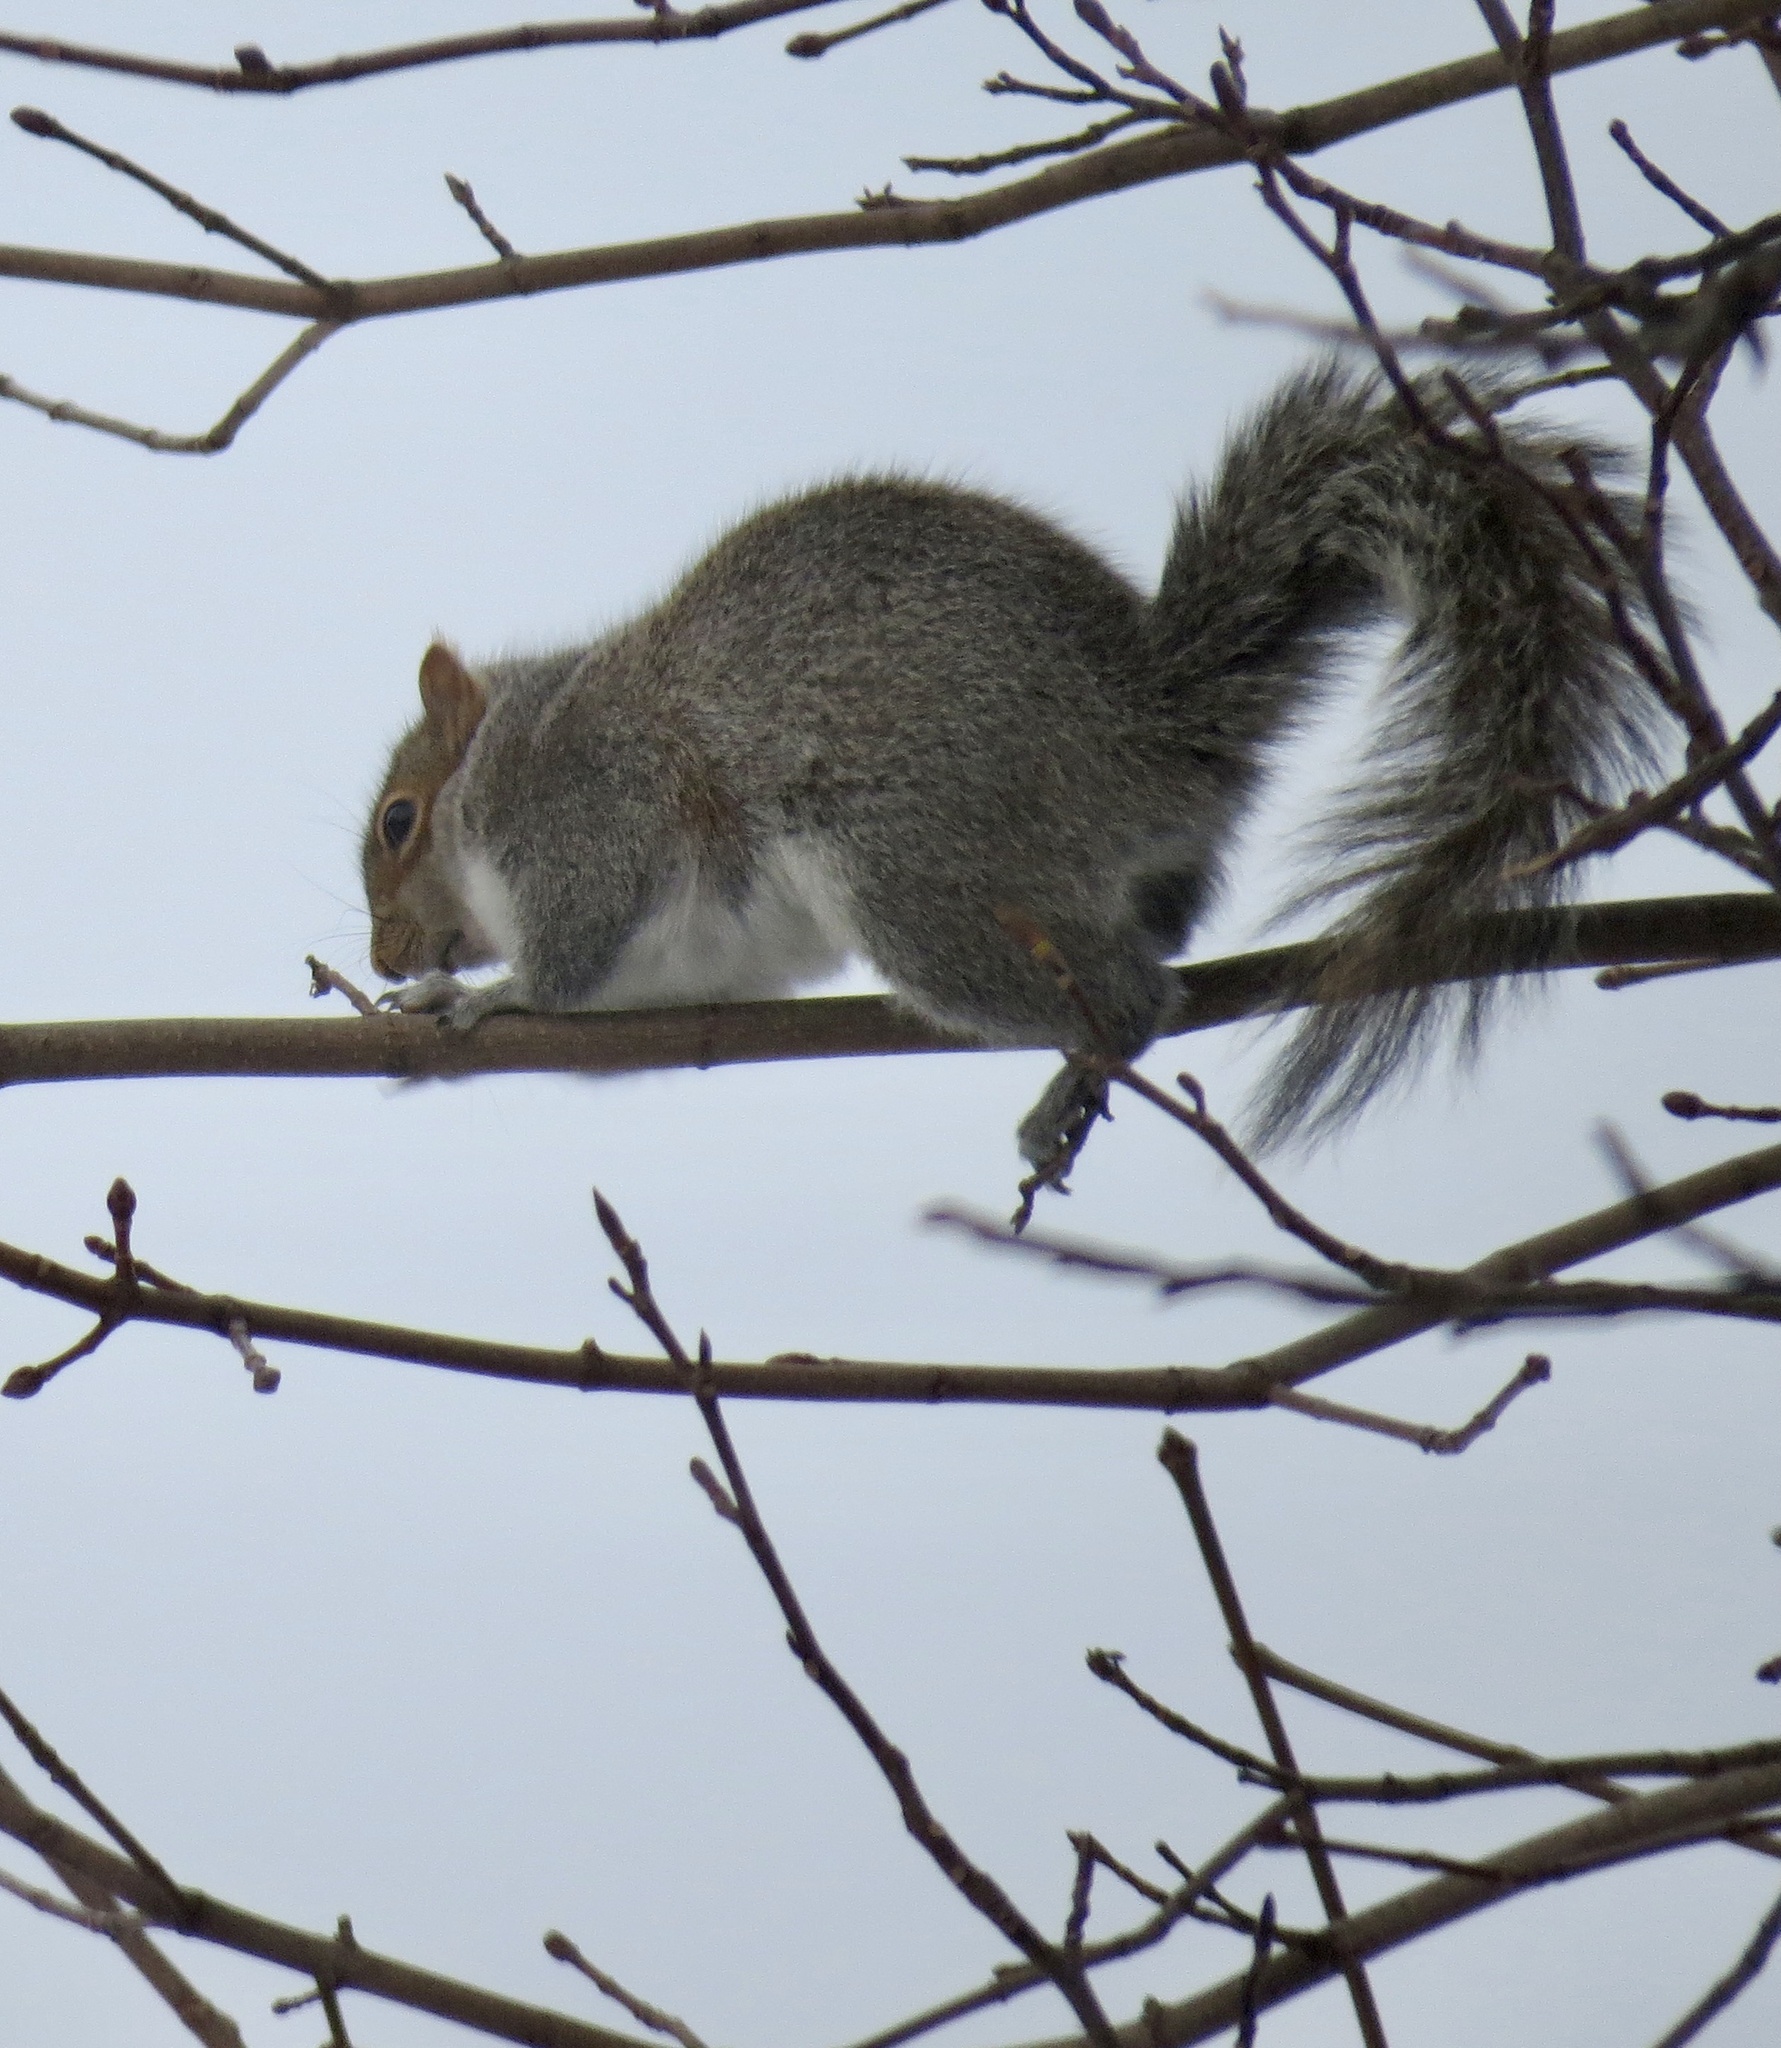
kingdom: Animalia
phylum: Chordata
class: Mammalia
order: Rodentia
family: Sciuridae
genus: Sciurus
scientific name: Sciurus carolinensis
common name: Eastern gray squirrel
